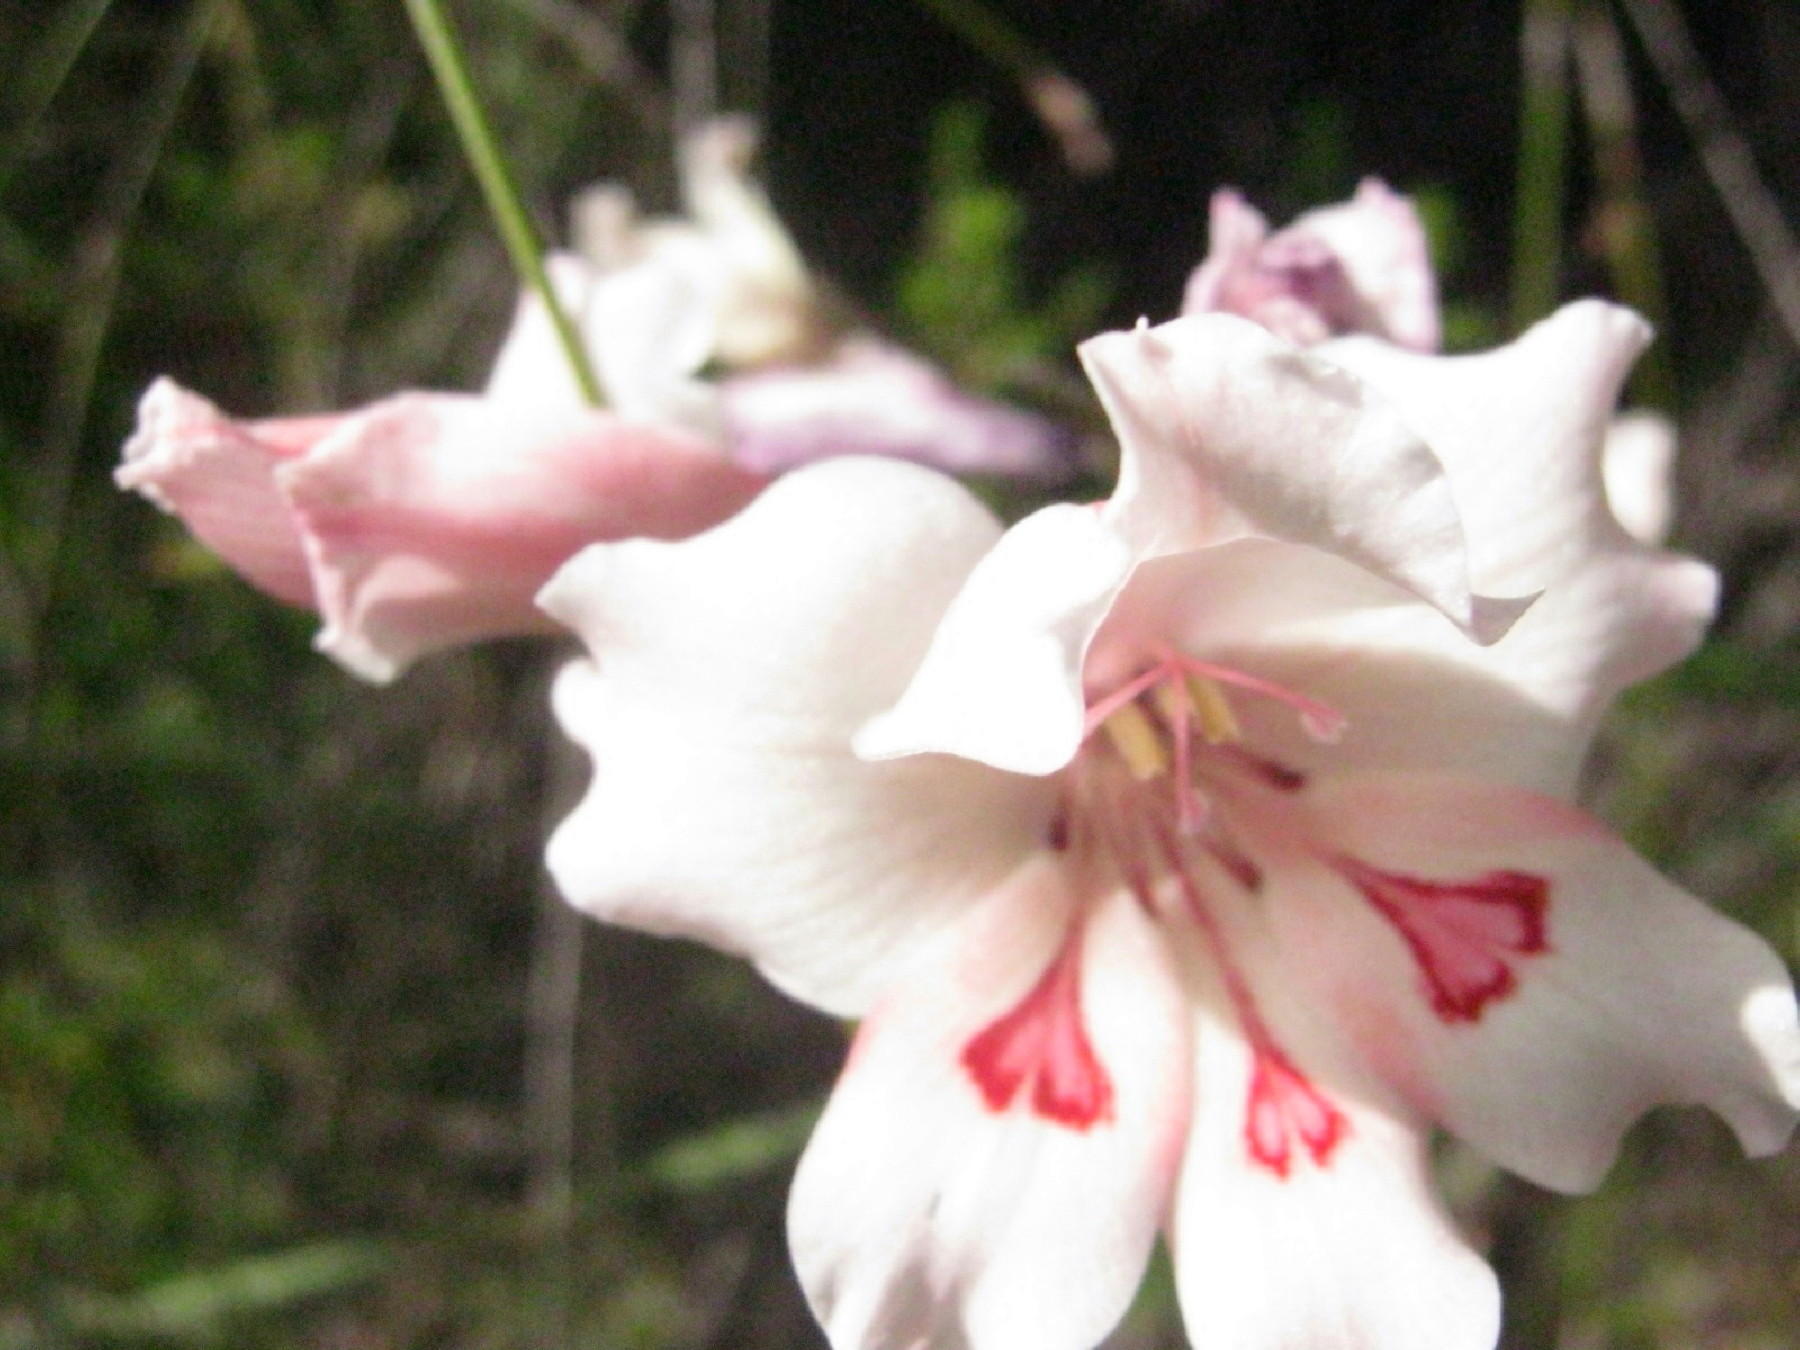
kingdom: Plantae
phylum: Tracheophyta
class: Liliopsida
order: Asparagales
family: Iridaceae
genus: Gladiolus
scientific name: Gladiolus carneus
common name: Painted-lady
